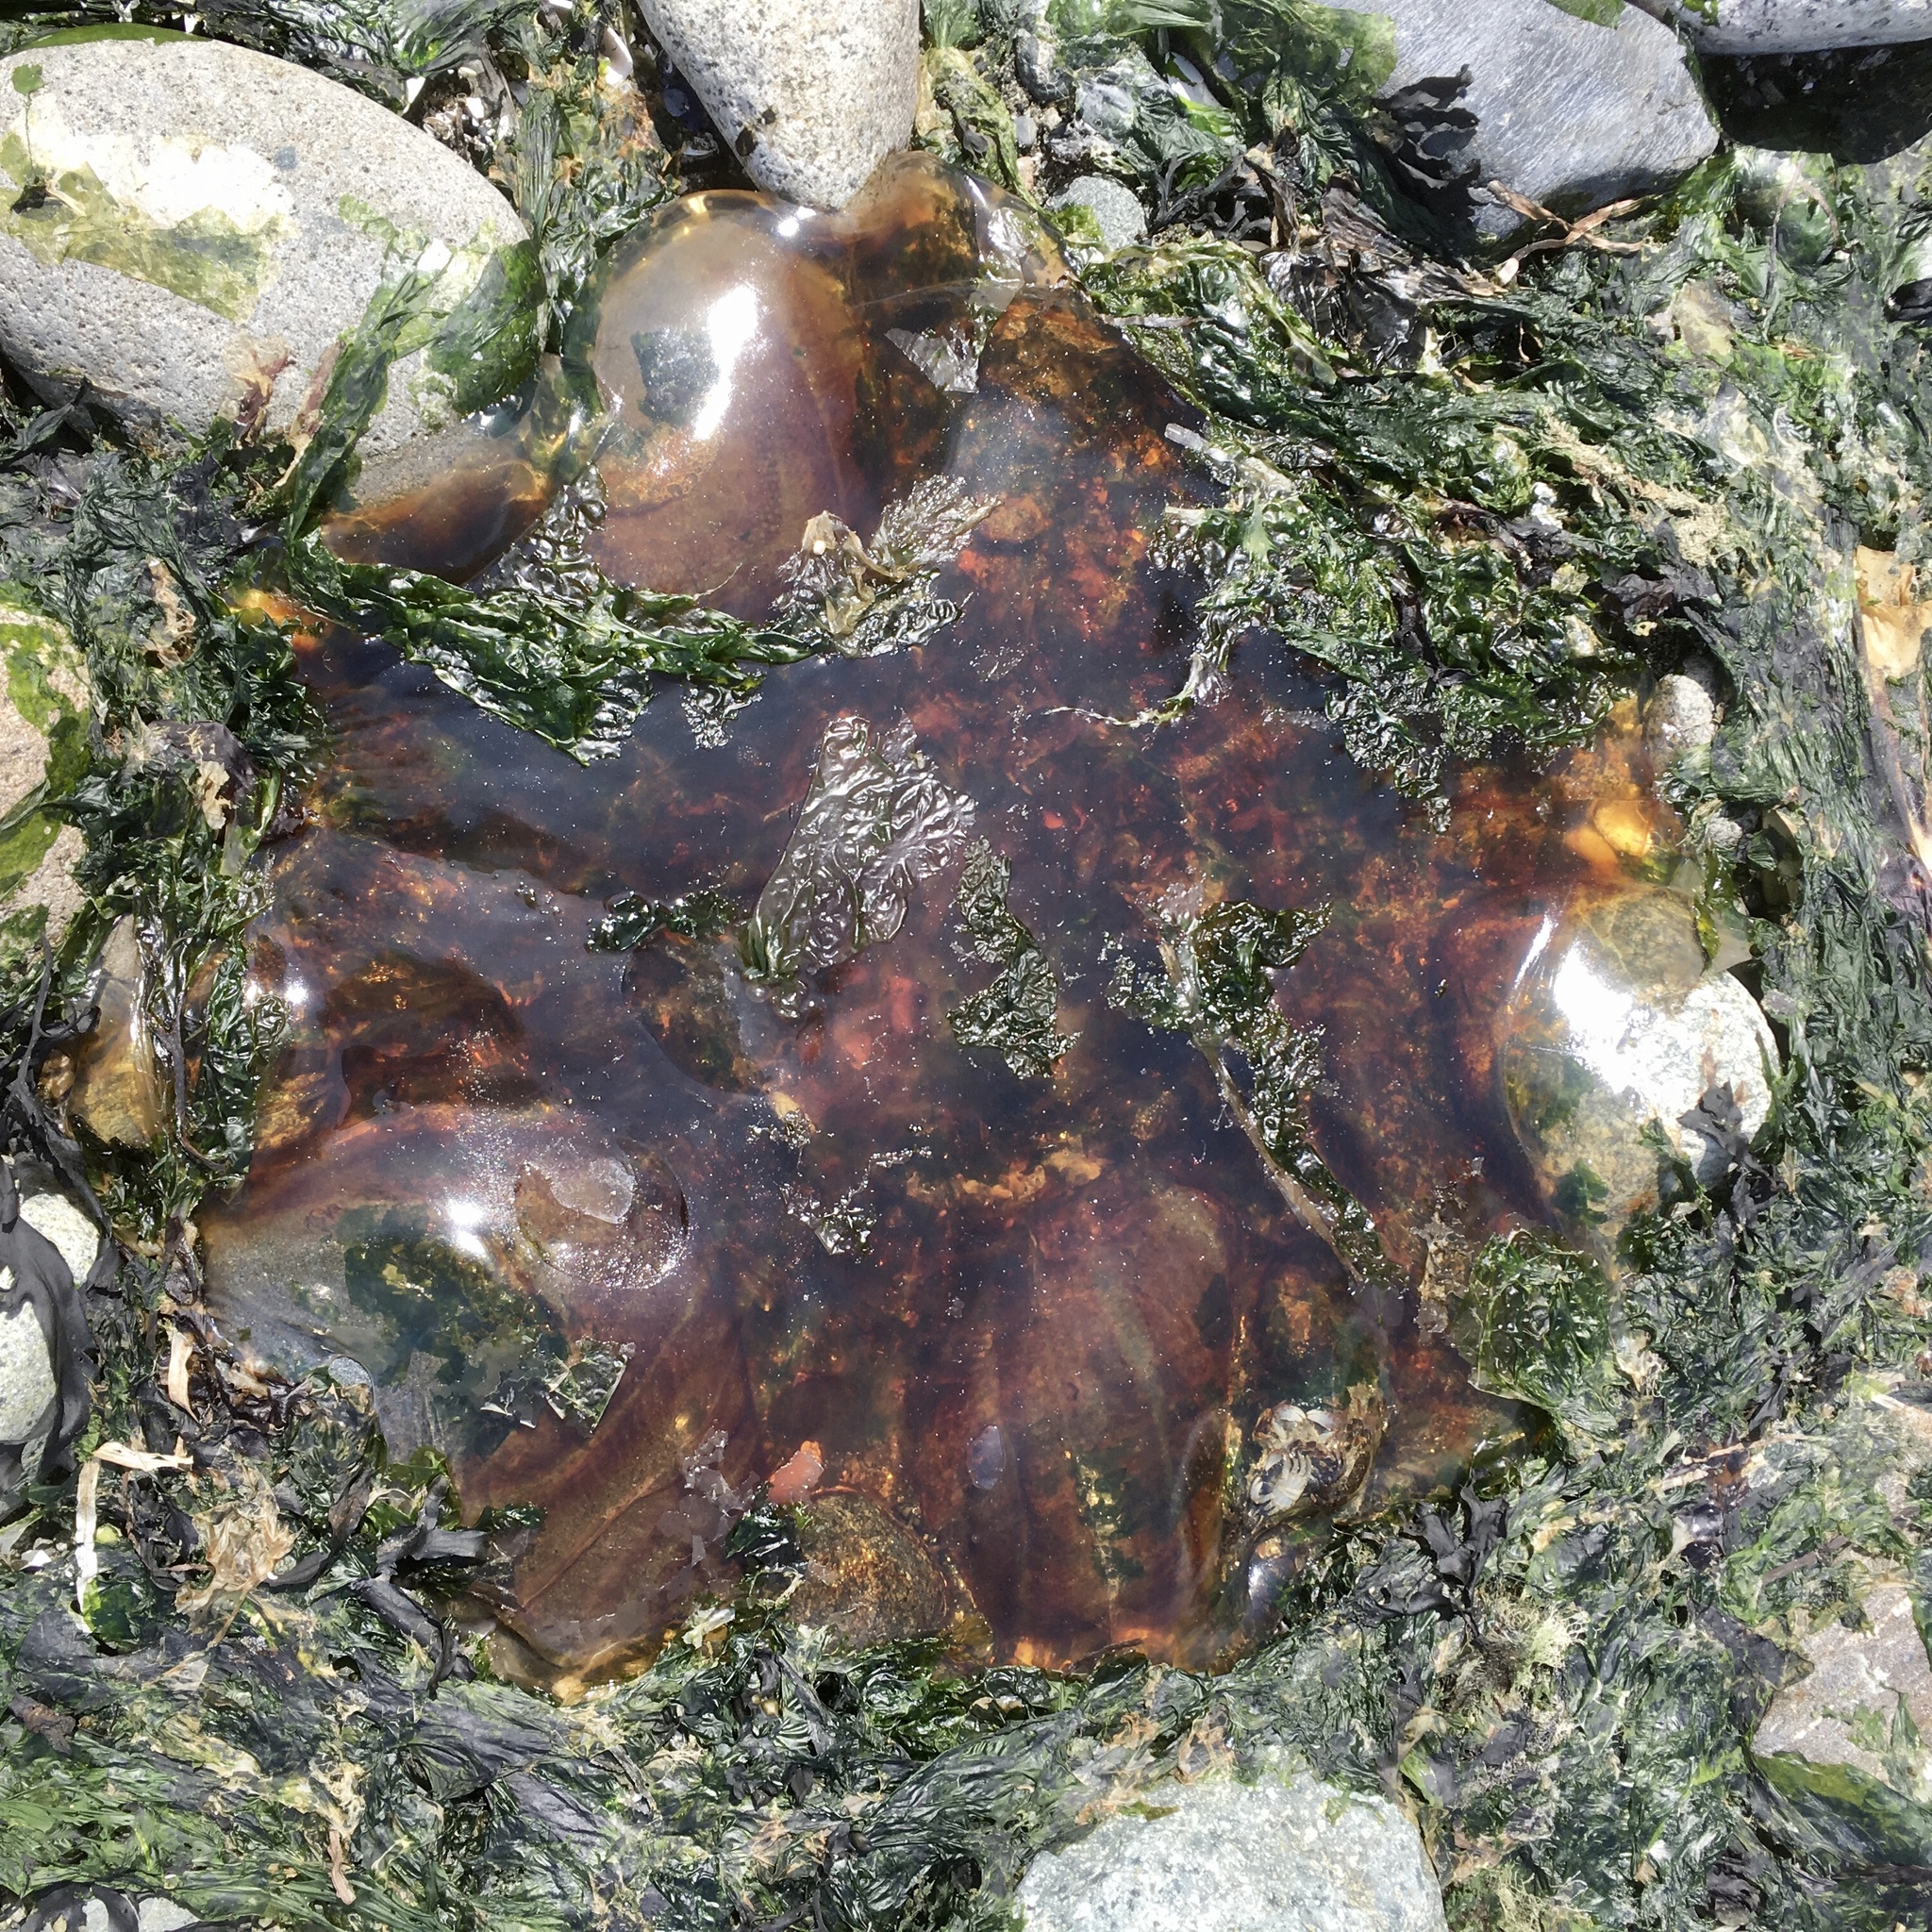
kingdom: Animalia
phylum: Cnidaria
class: Scyphozoa
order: Semaeostomeae
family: Cyaneidae
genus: Cyanea
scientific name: Cyanea ferruginea
